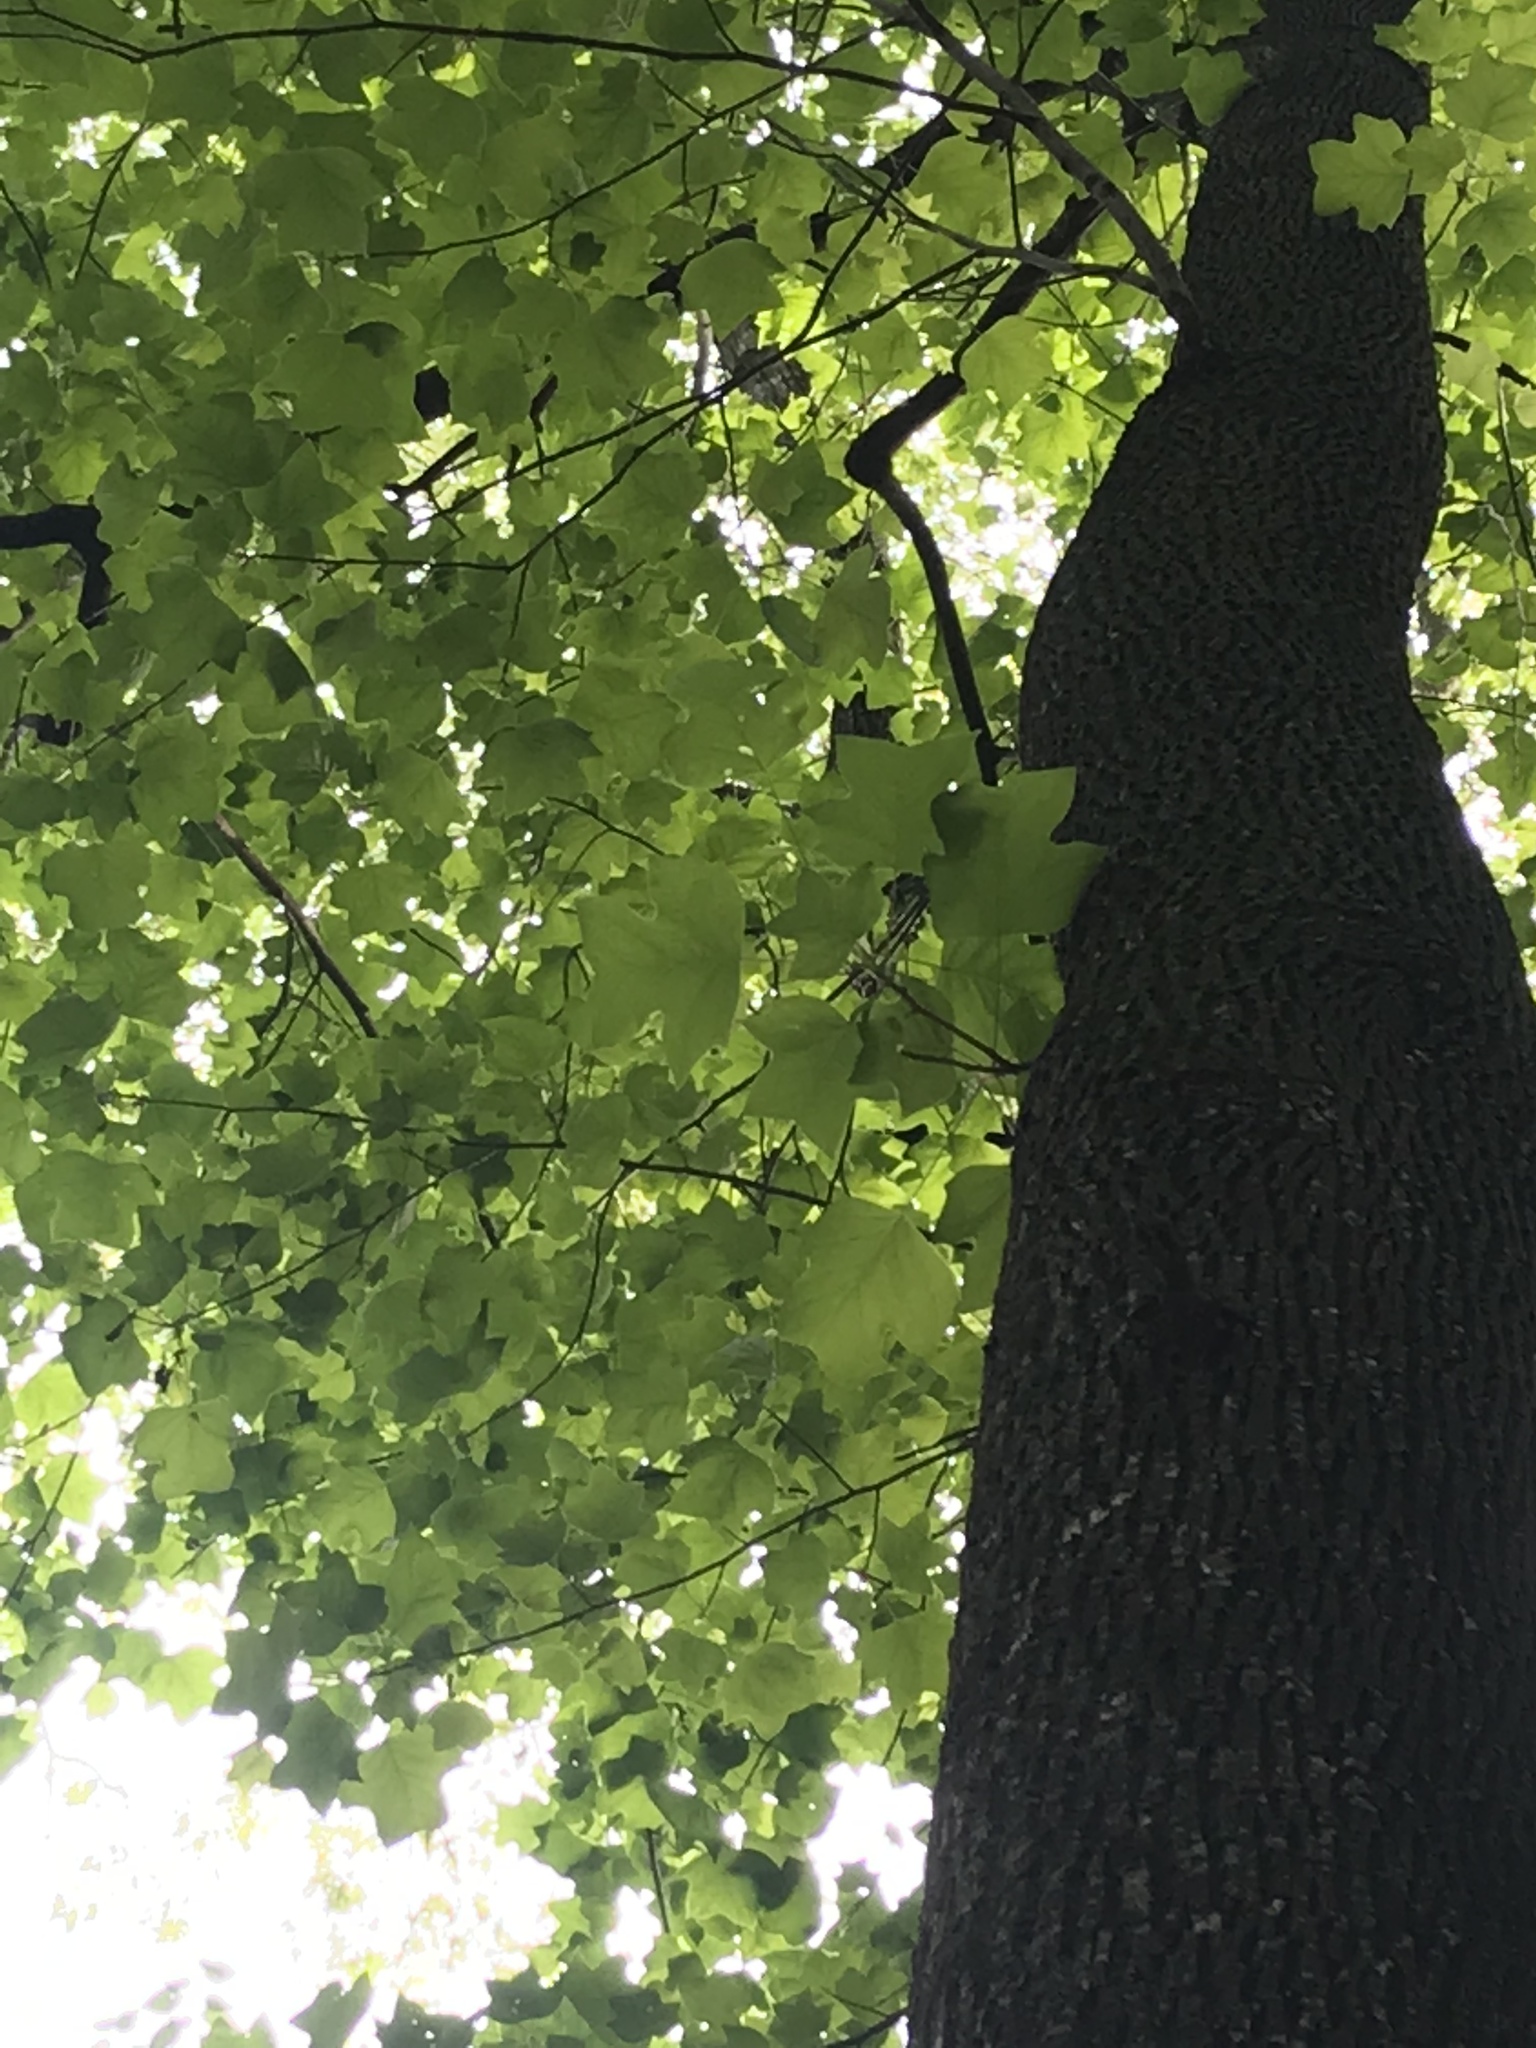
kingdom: Plantae
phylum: Tracheophyta
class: Magnoliopsida
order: Magnoliales
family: Magnoliaceae
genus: Liriodendron
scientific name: Liriodendron tulipifera
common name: Tulip tree
